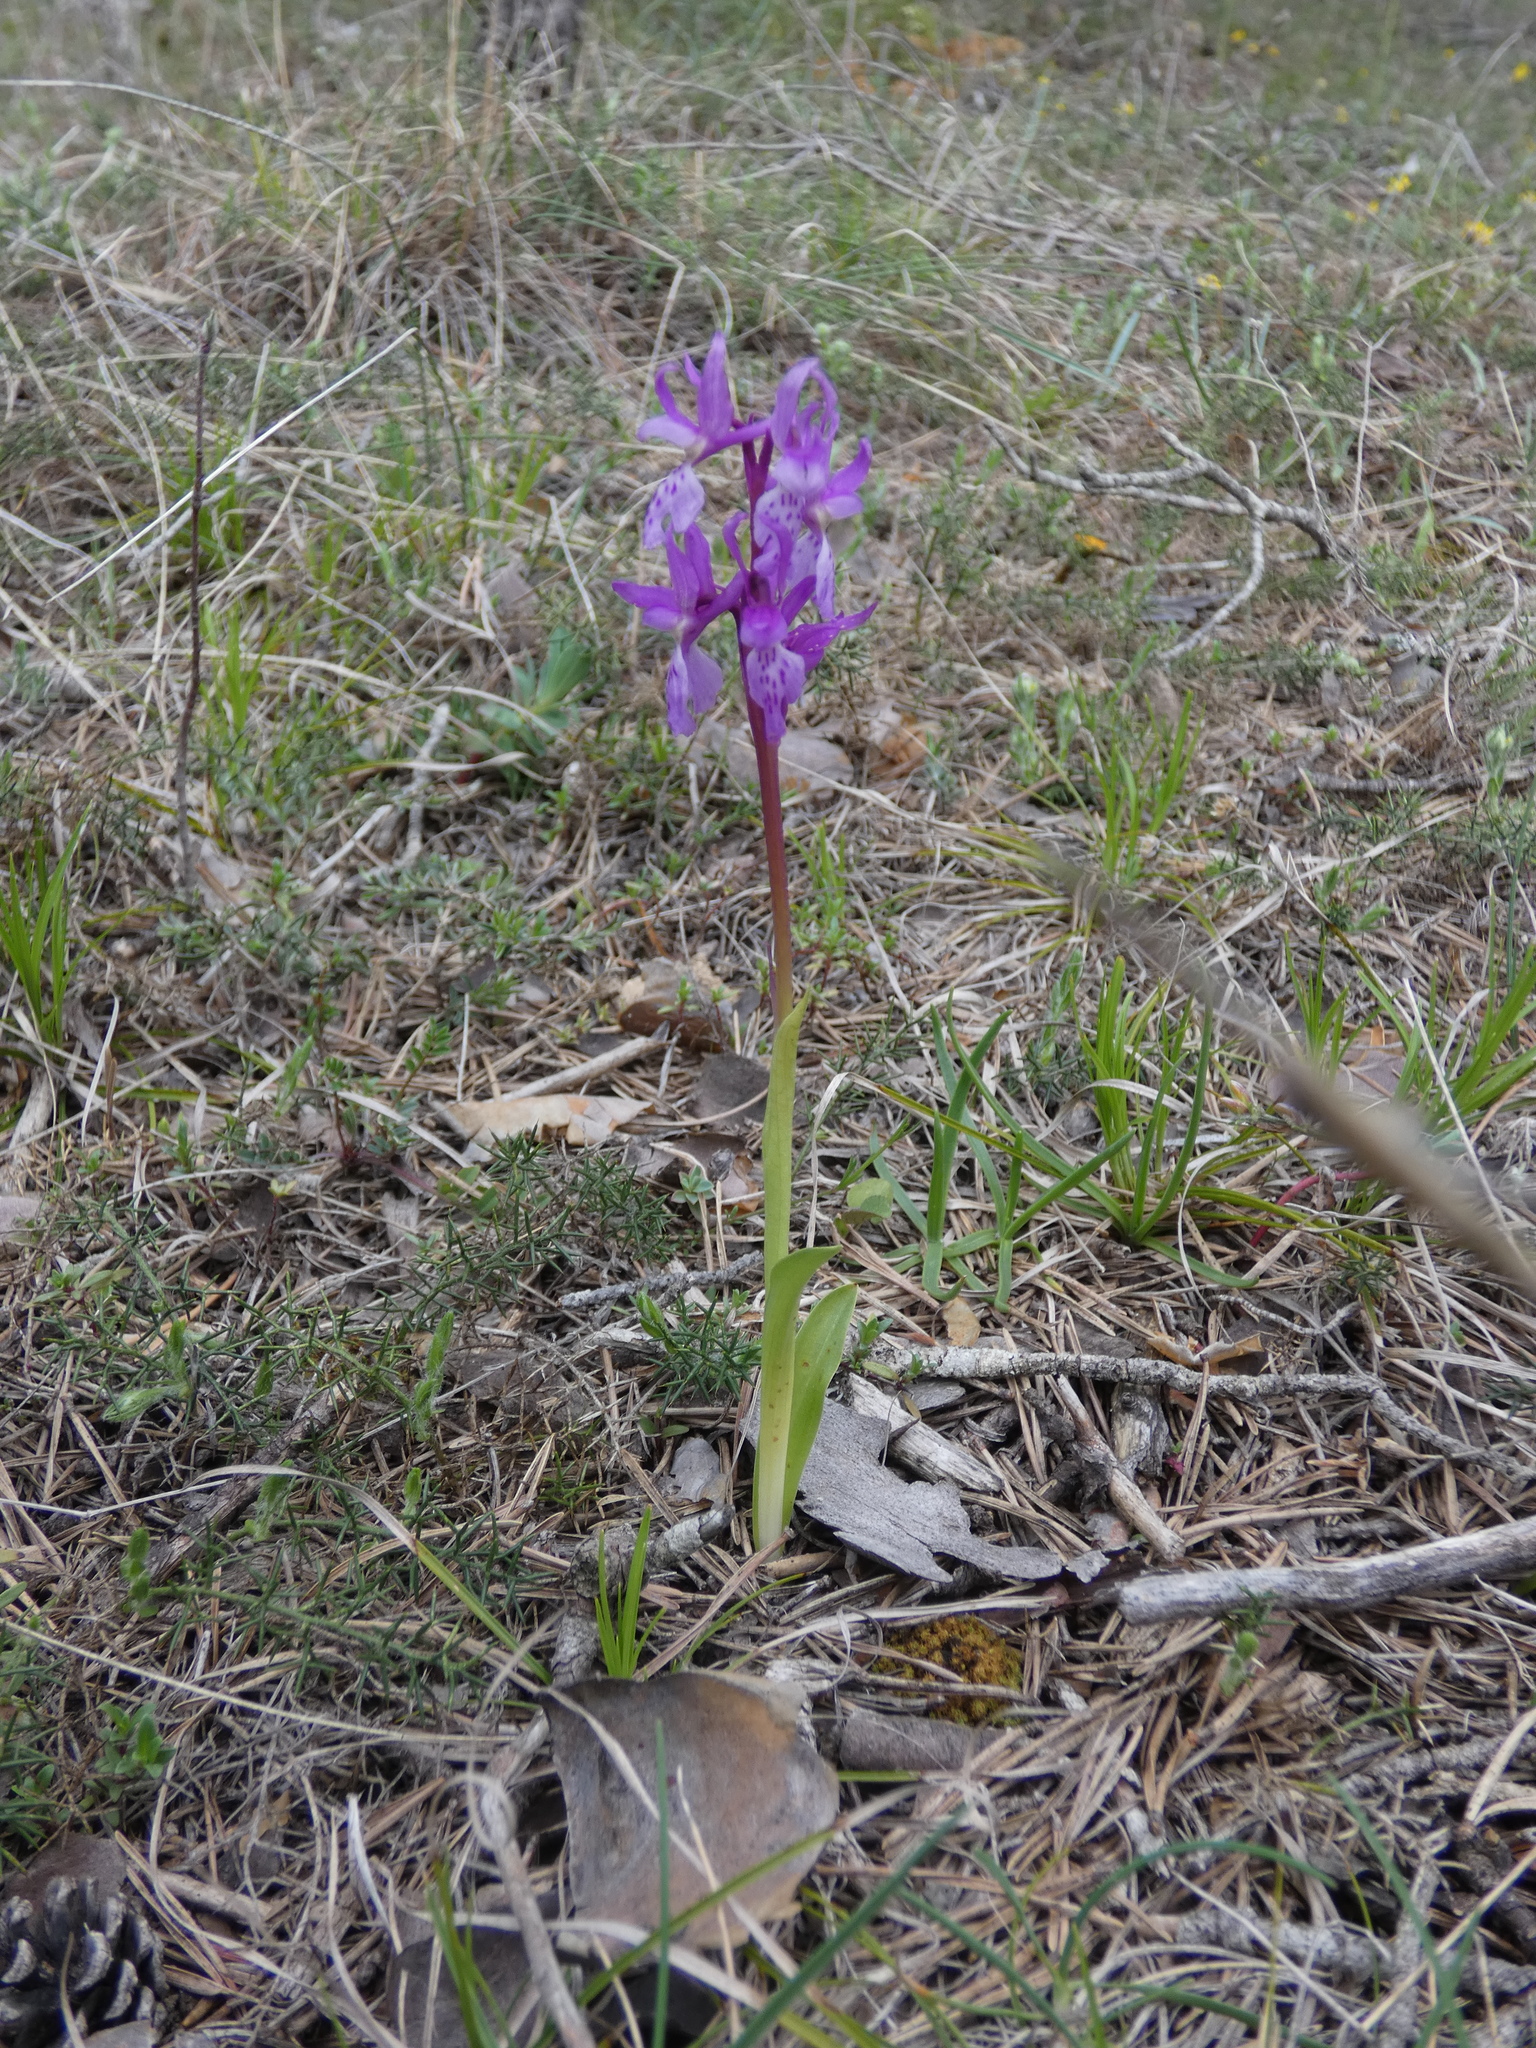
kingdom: Plantae
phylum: Tracheophyta
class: Liliopsida
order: Asparagales
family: Orchidaceae
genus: Orchis
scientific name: Orchis olbiensis
